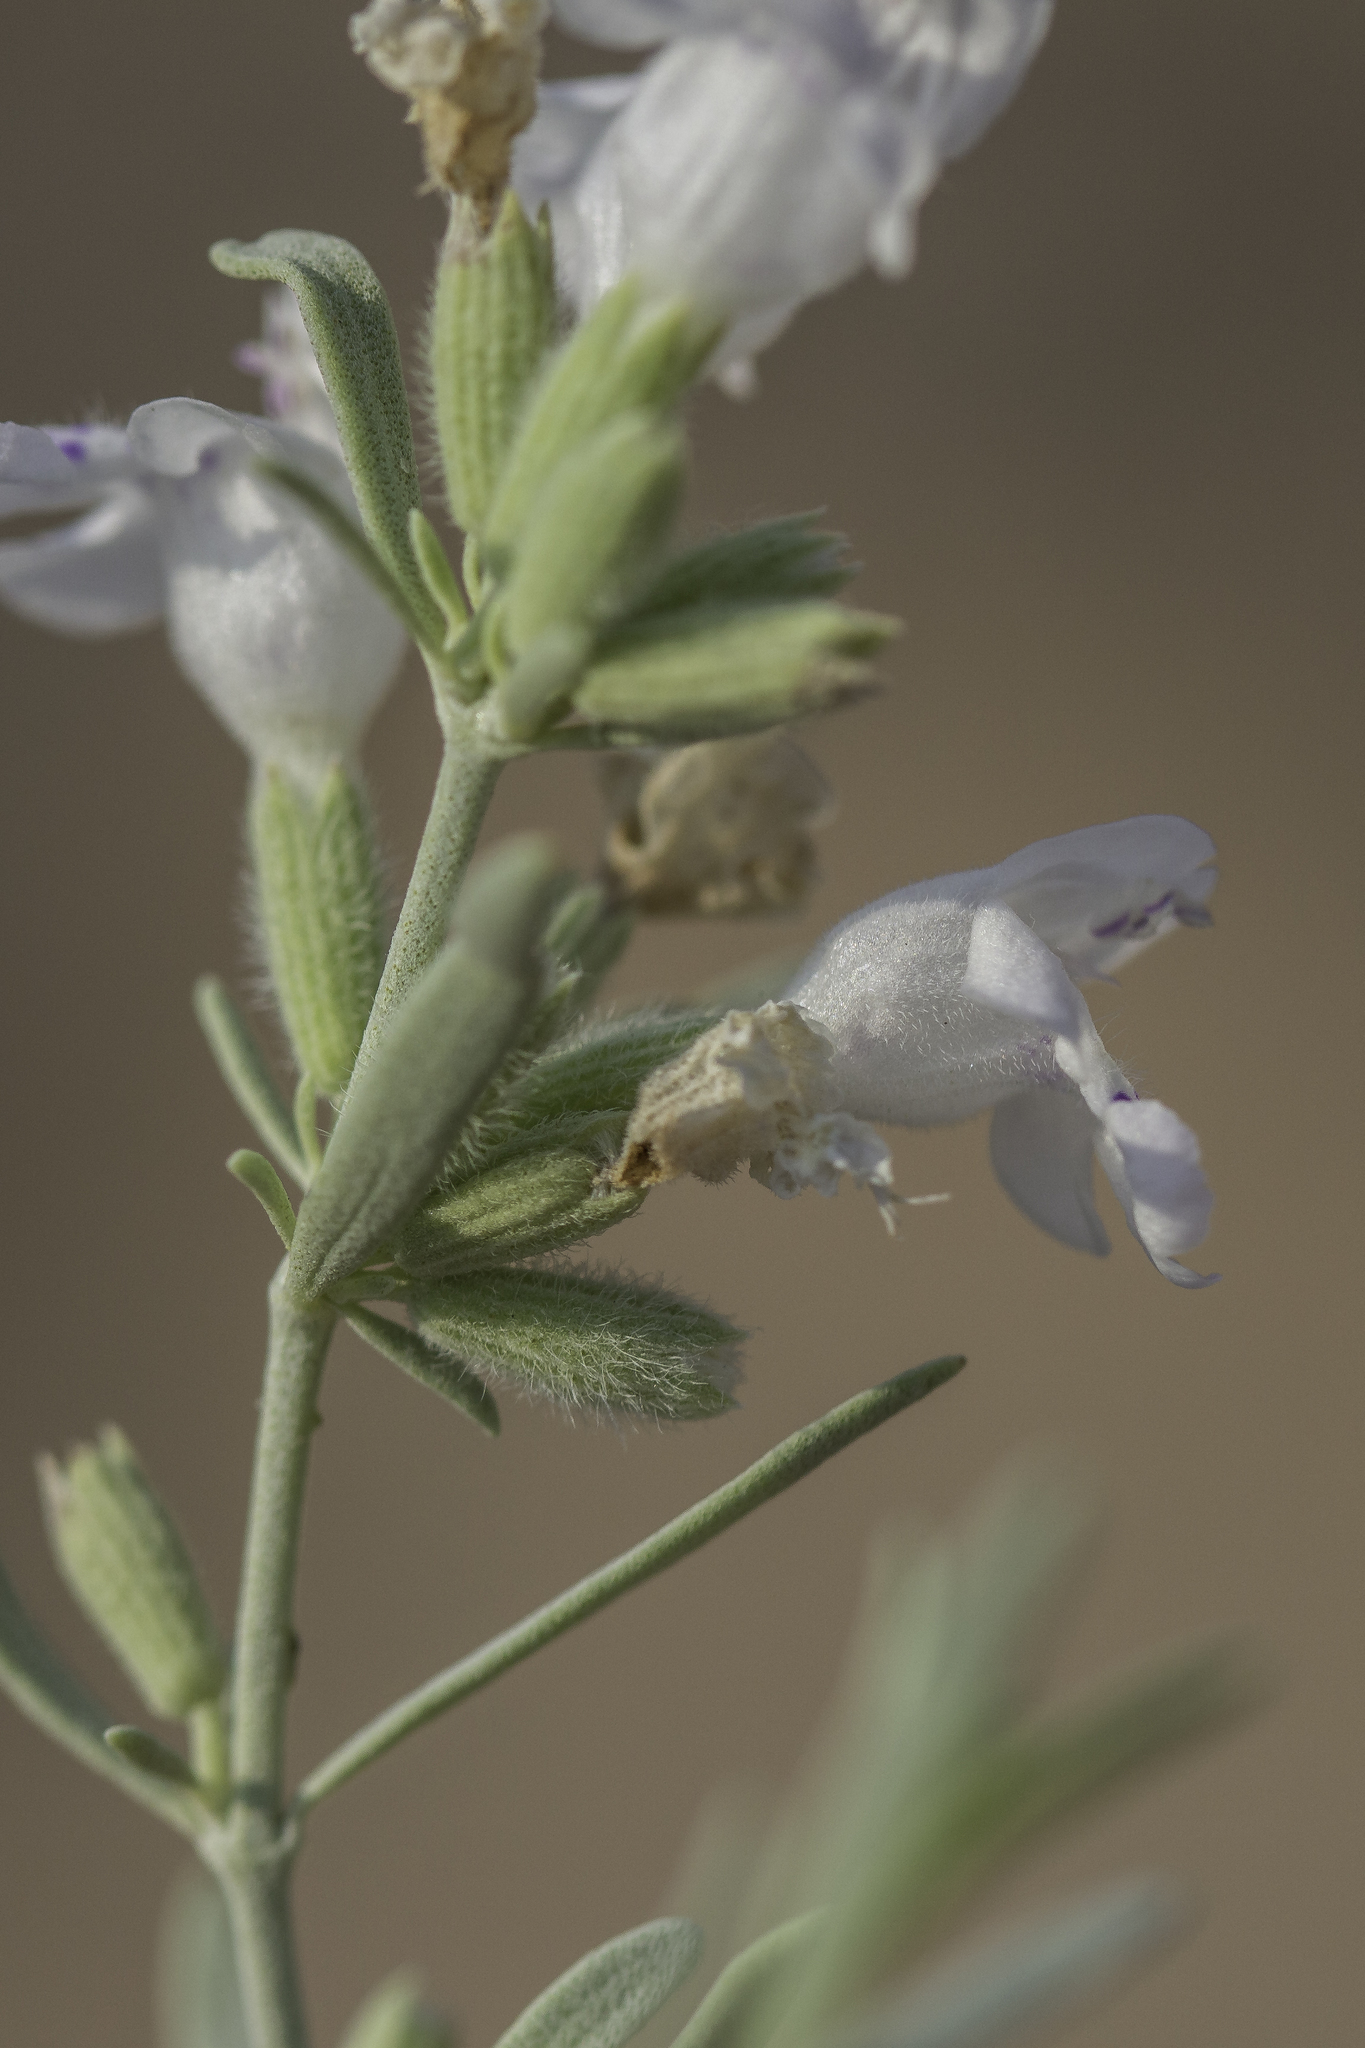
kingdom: Plantae
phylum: Tracheophyta
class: Magnoliopsida
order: Lamiales
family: Lamiaceae
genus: Poliomintha
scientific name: Poliomintha incana
